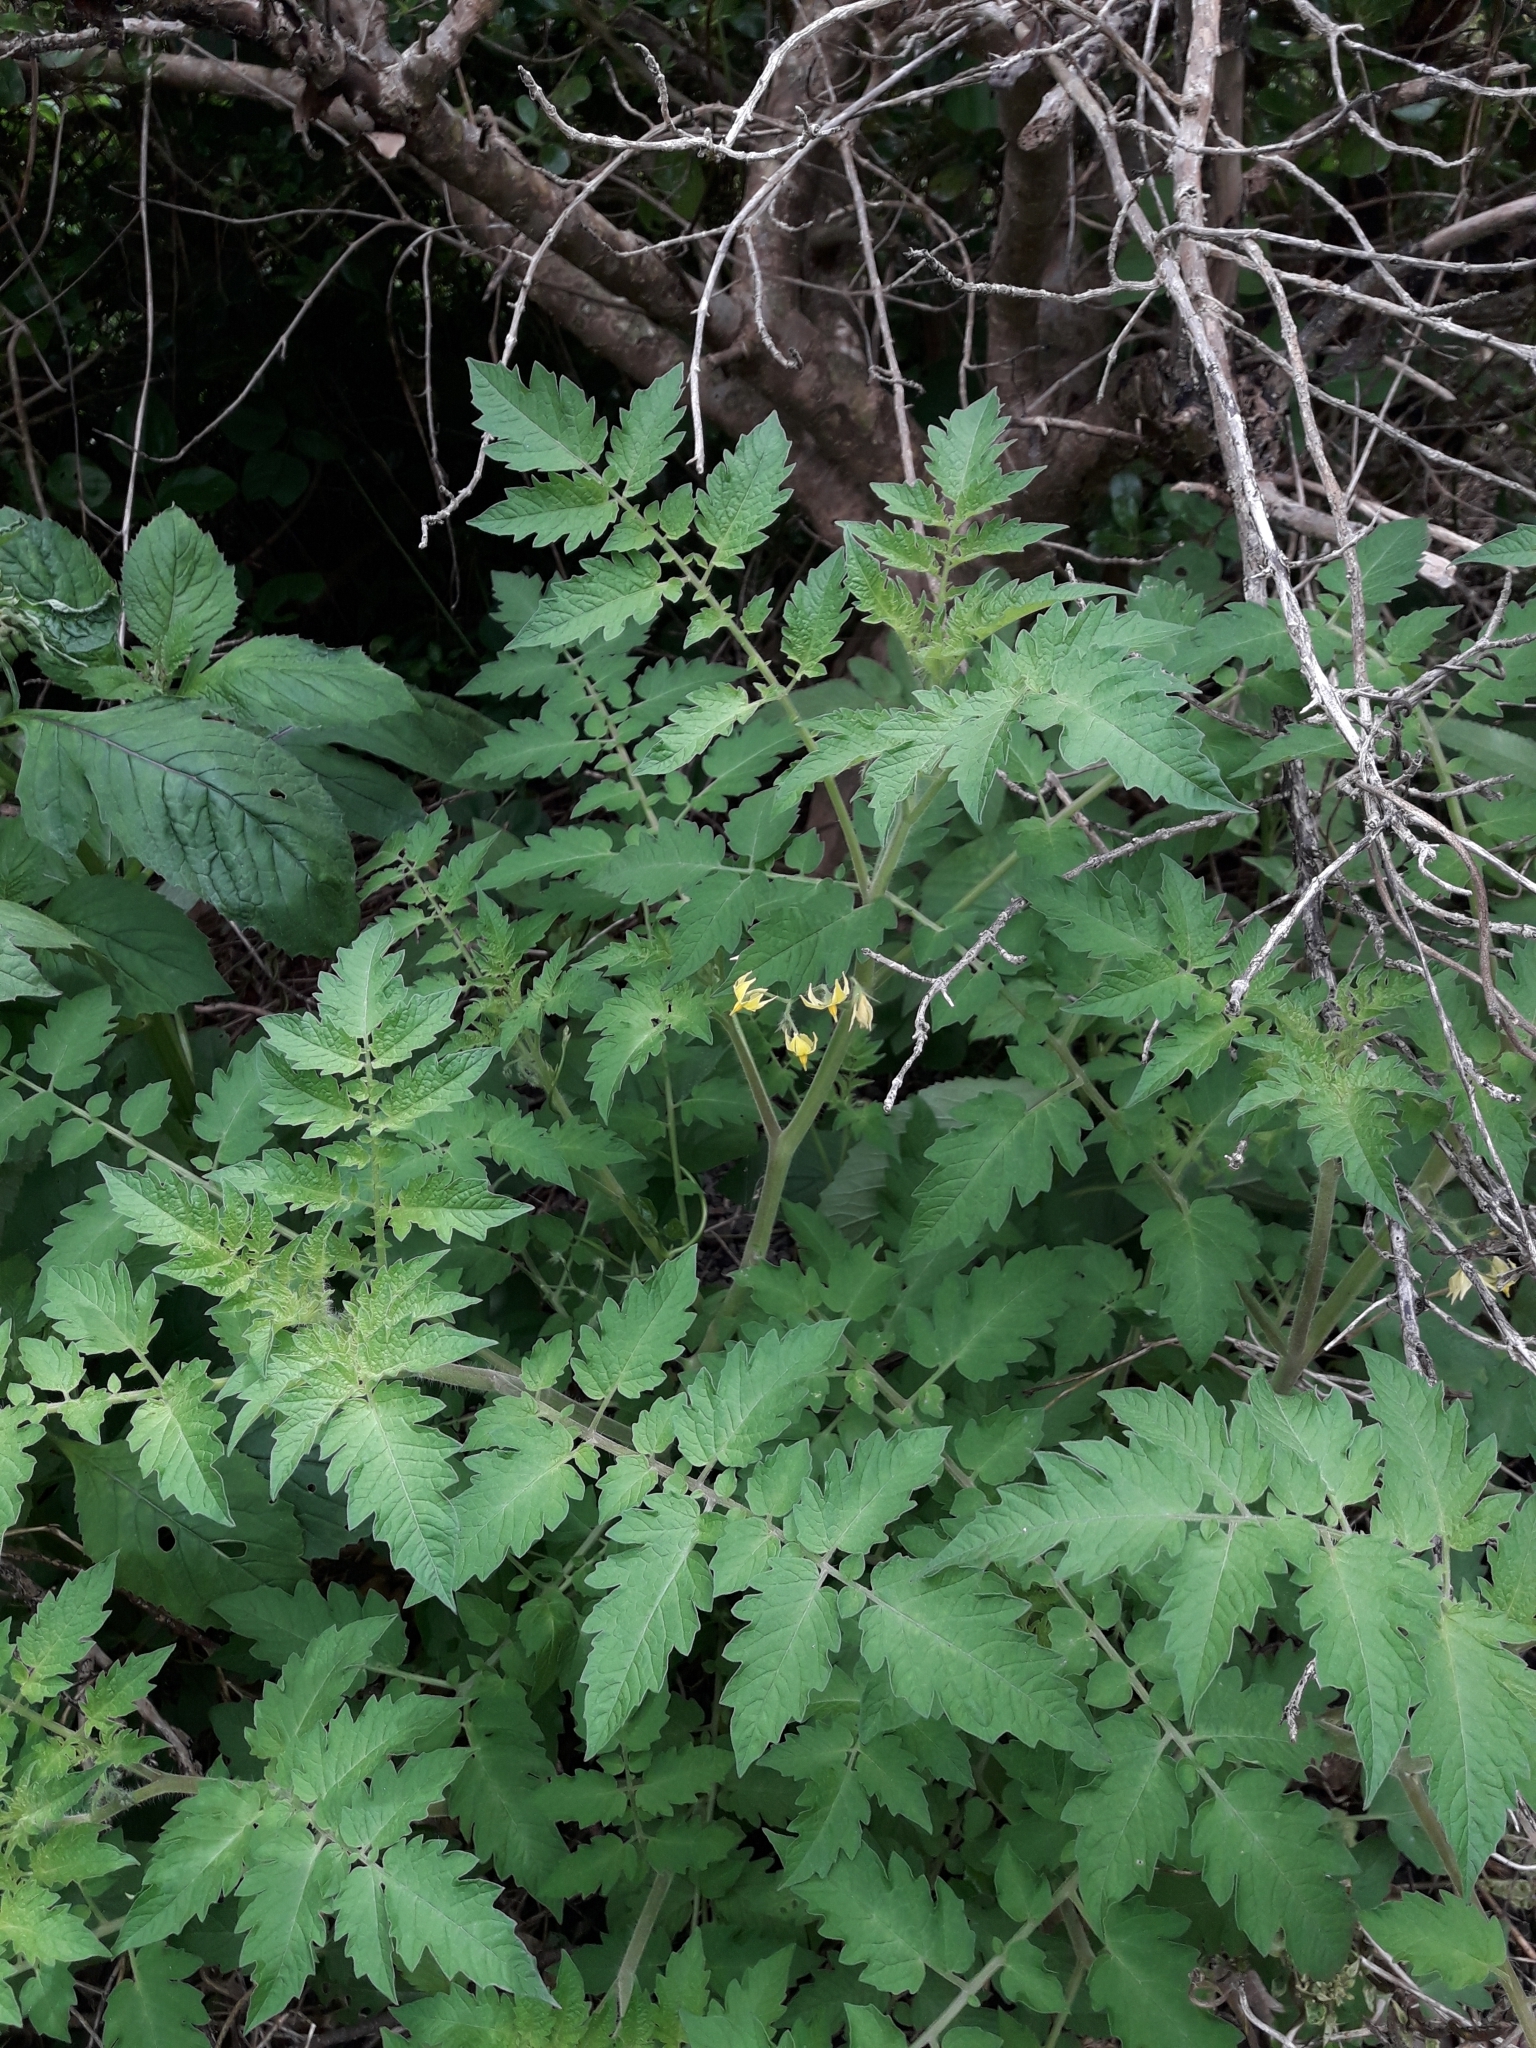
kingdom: Plantae
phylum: Tracheophyta
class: Magnoliopsida
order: Solanales
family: Solanaceae
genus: Solanum
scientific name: Solanum lycopersicum
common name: Garden tomato
